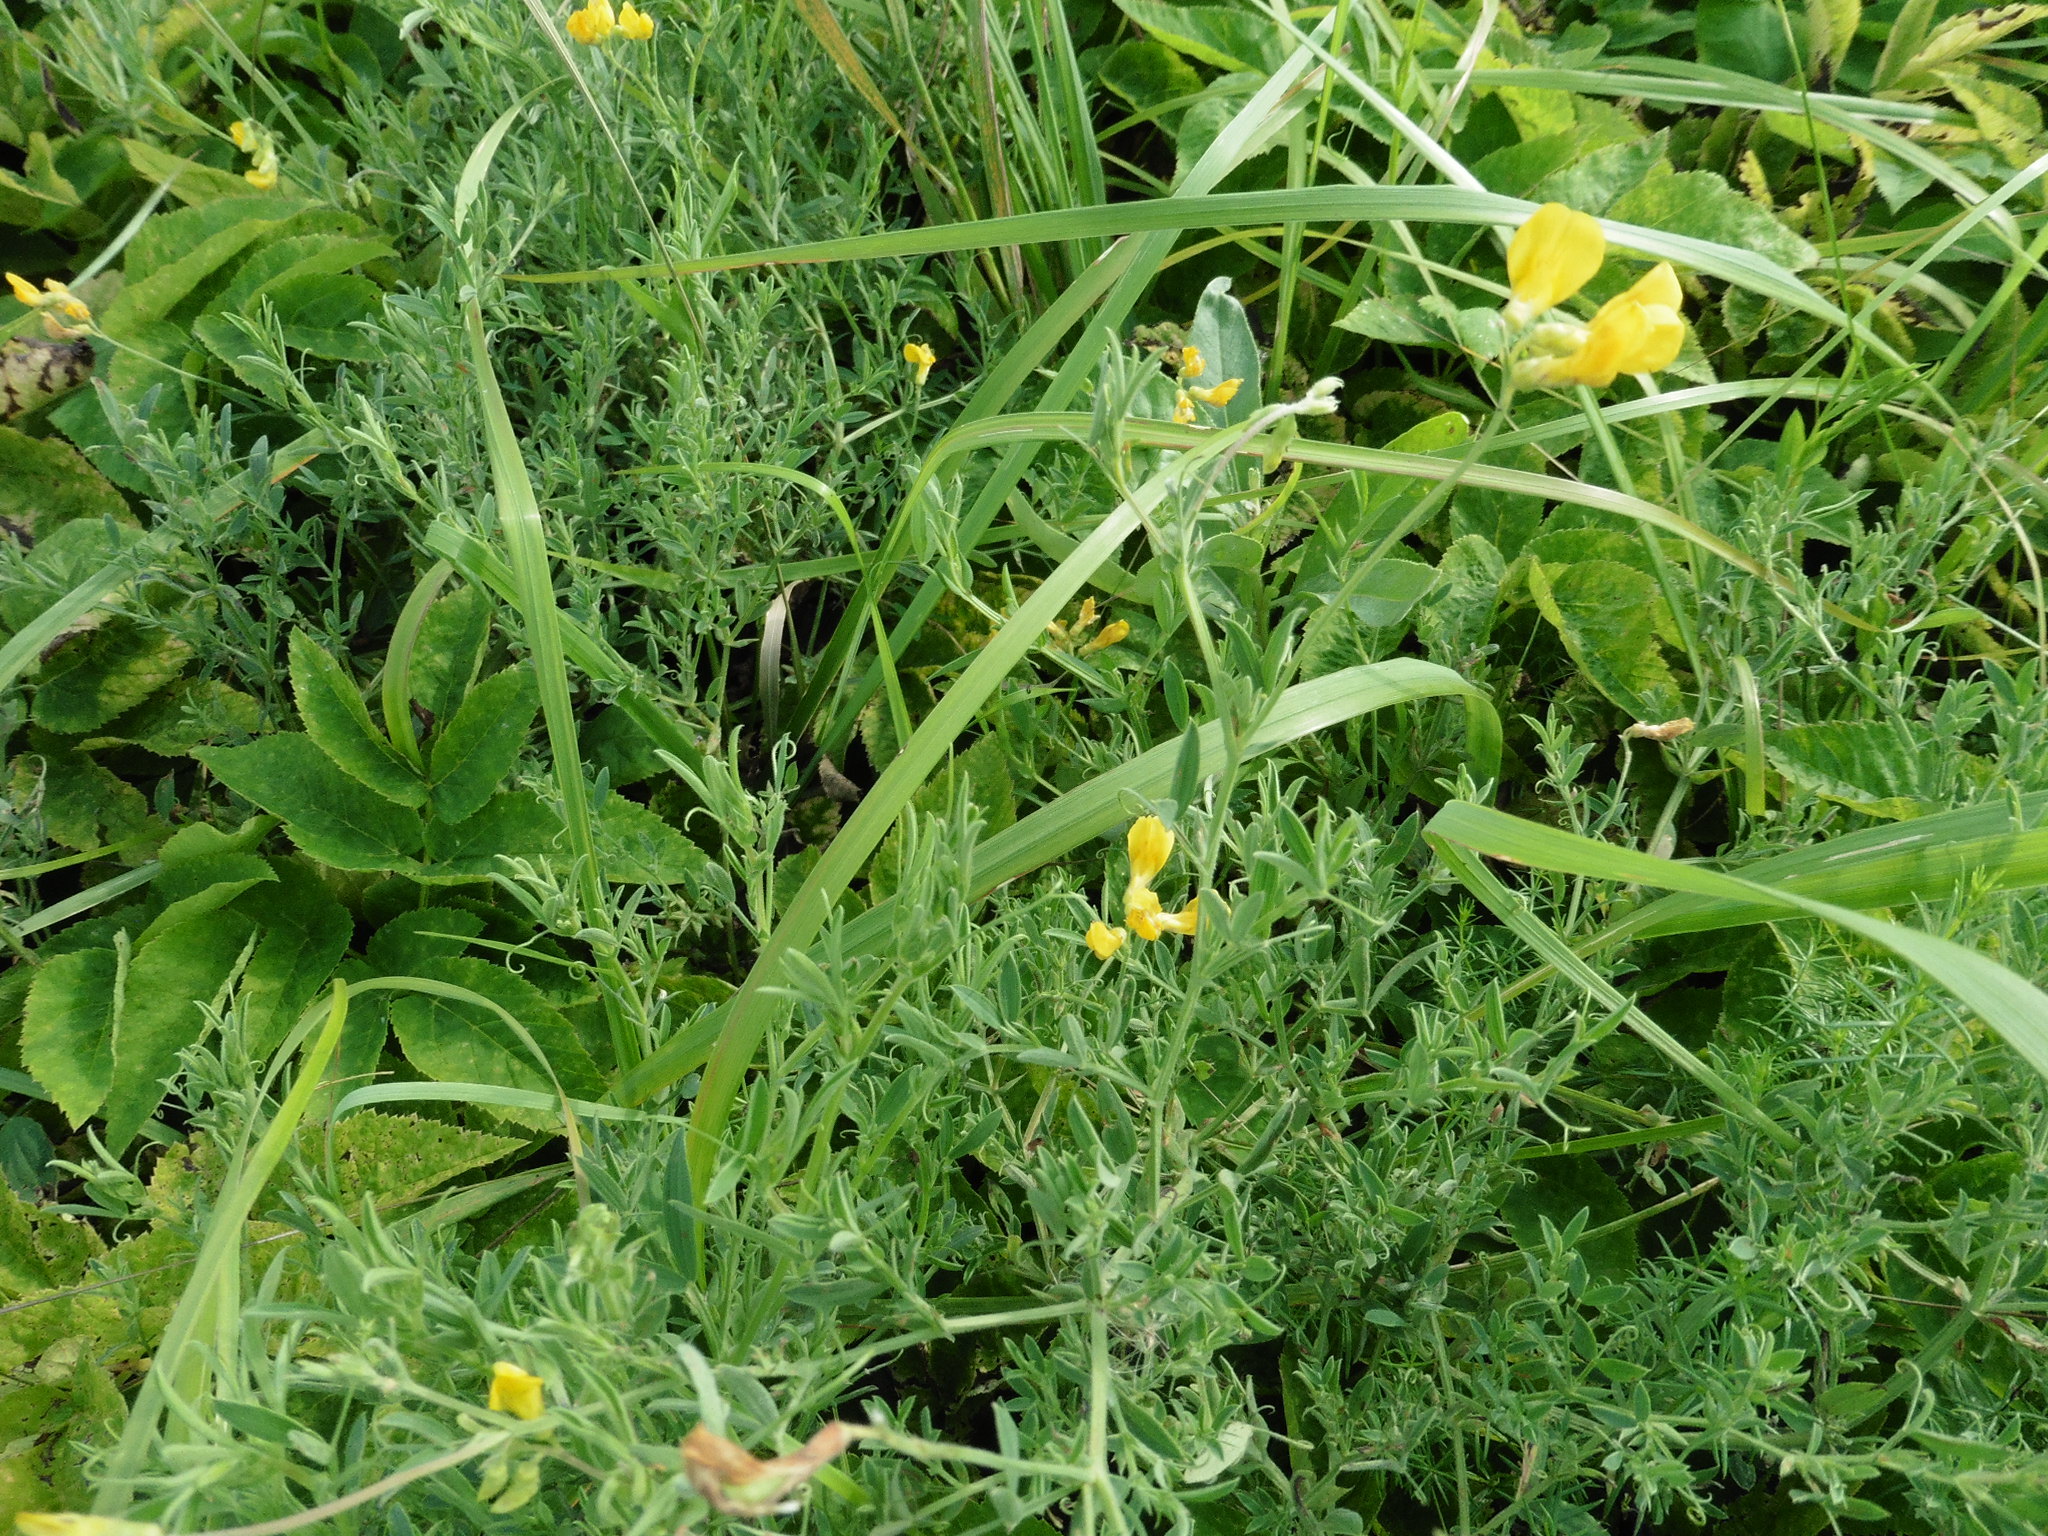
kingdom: Plantae
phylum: Tracheophyta
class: Magnoliopsida
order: Fabales
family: Fabaceae
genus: Lathyrus
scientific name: Lathyrus pratensis
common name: Meadow vetchling
